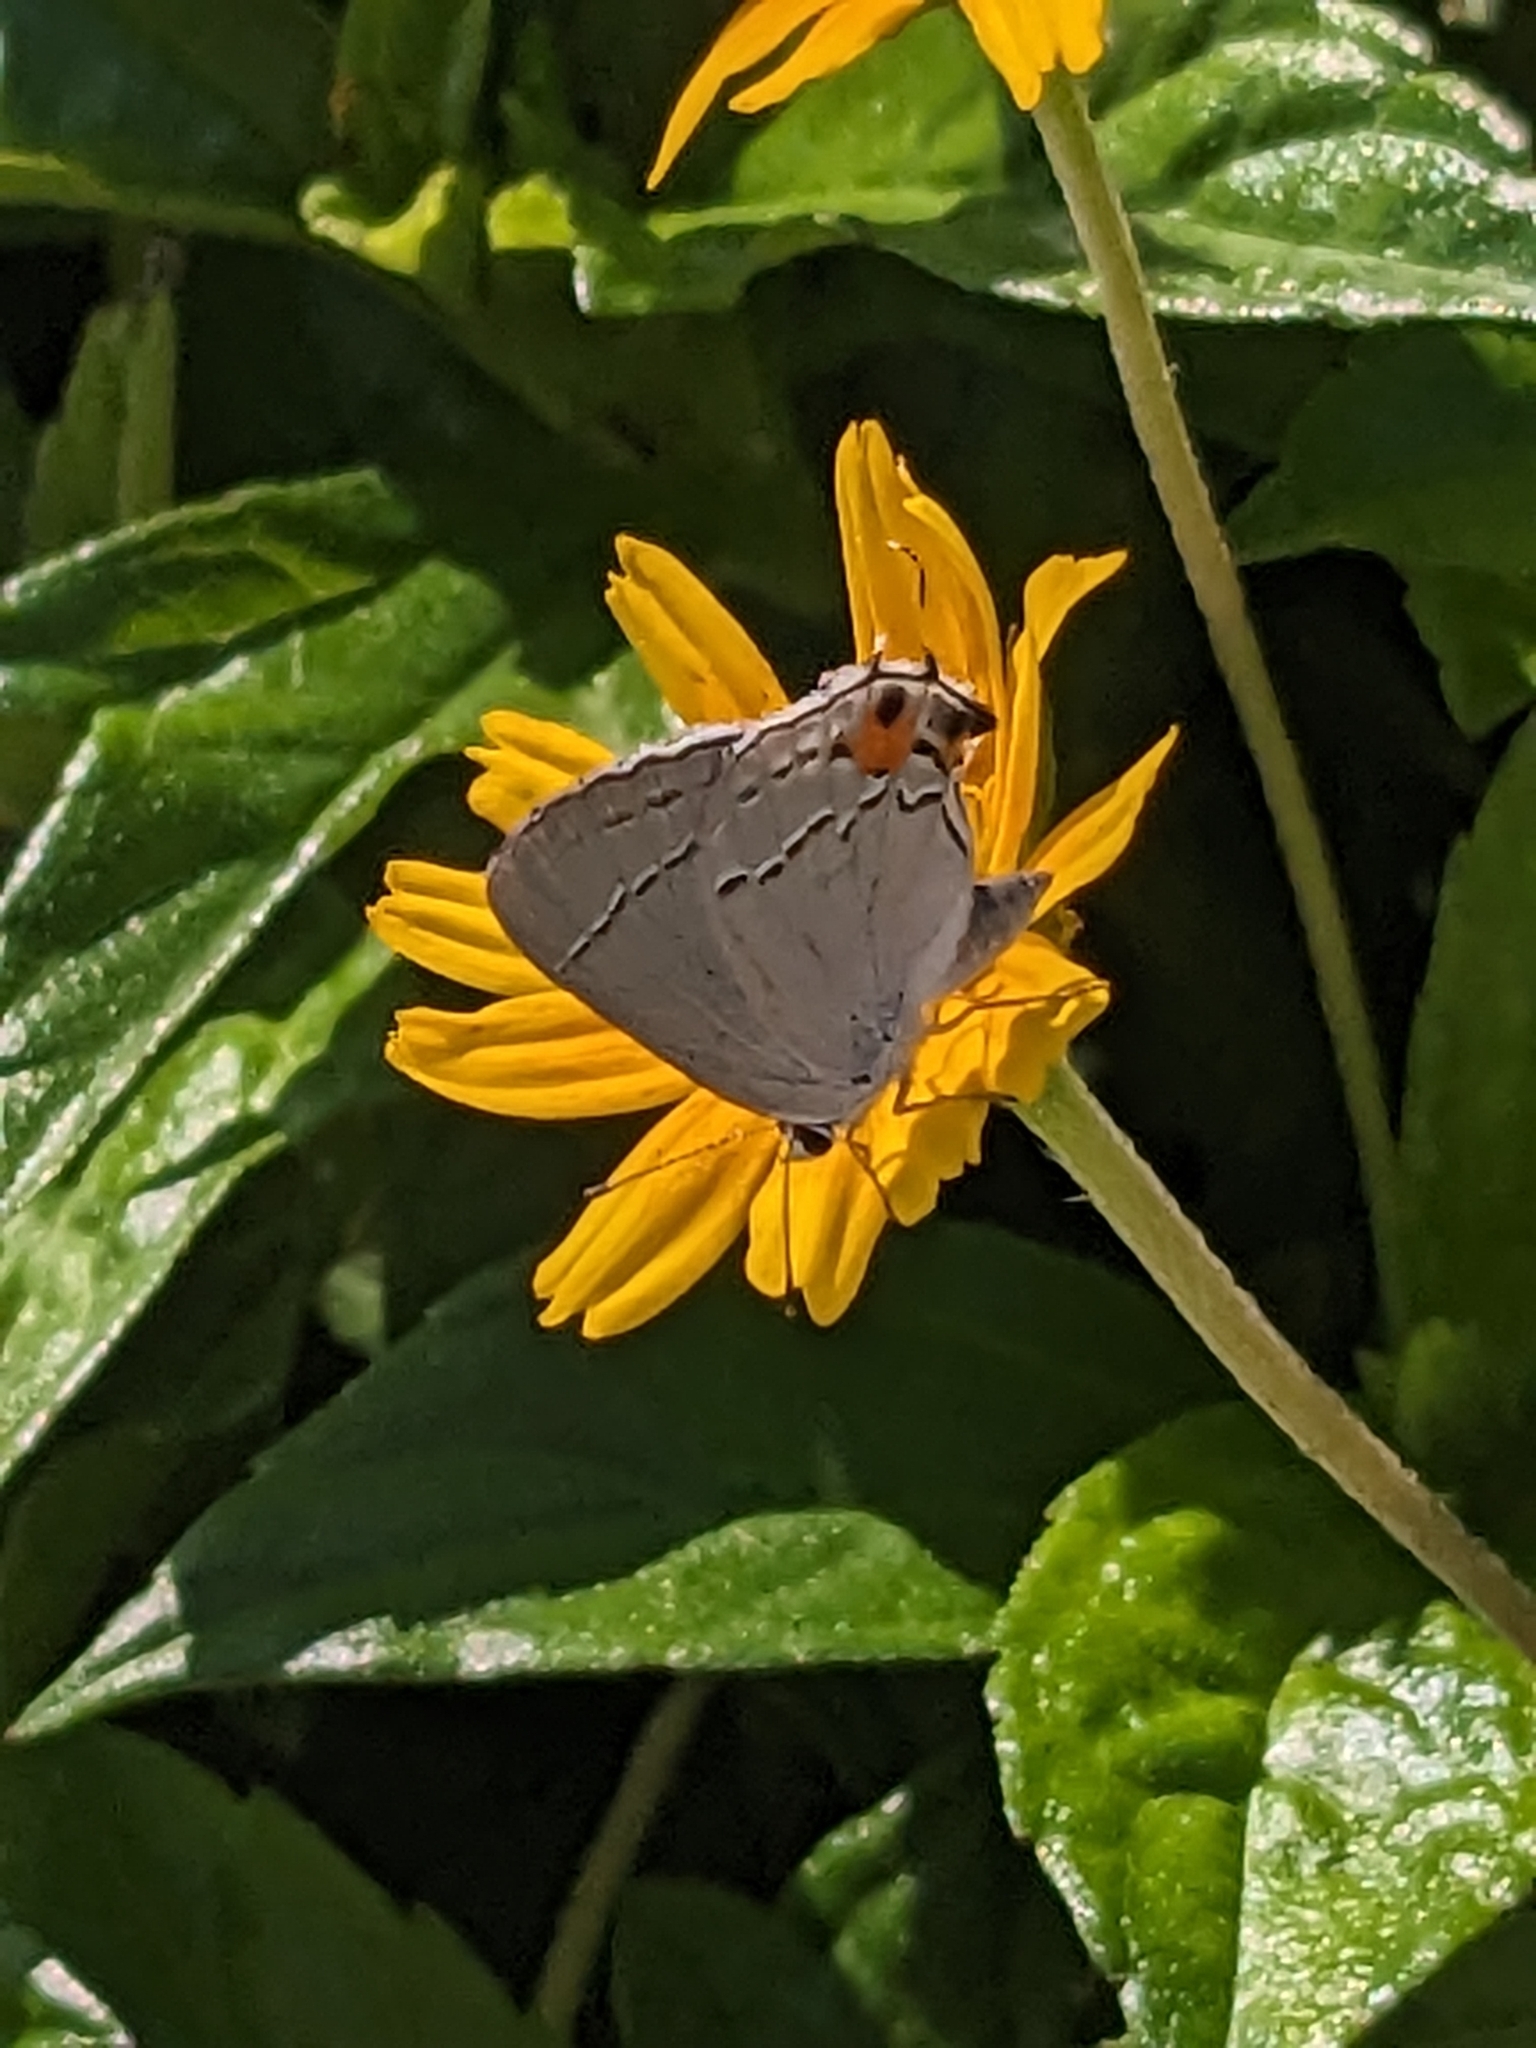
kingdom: Animalia
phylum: Arthropoda
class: Insecta
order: Lepidoptera
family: Lycaenidae
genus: Strymon
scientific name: Strymon melinus
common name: Gray hairstreak
